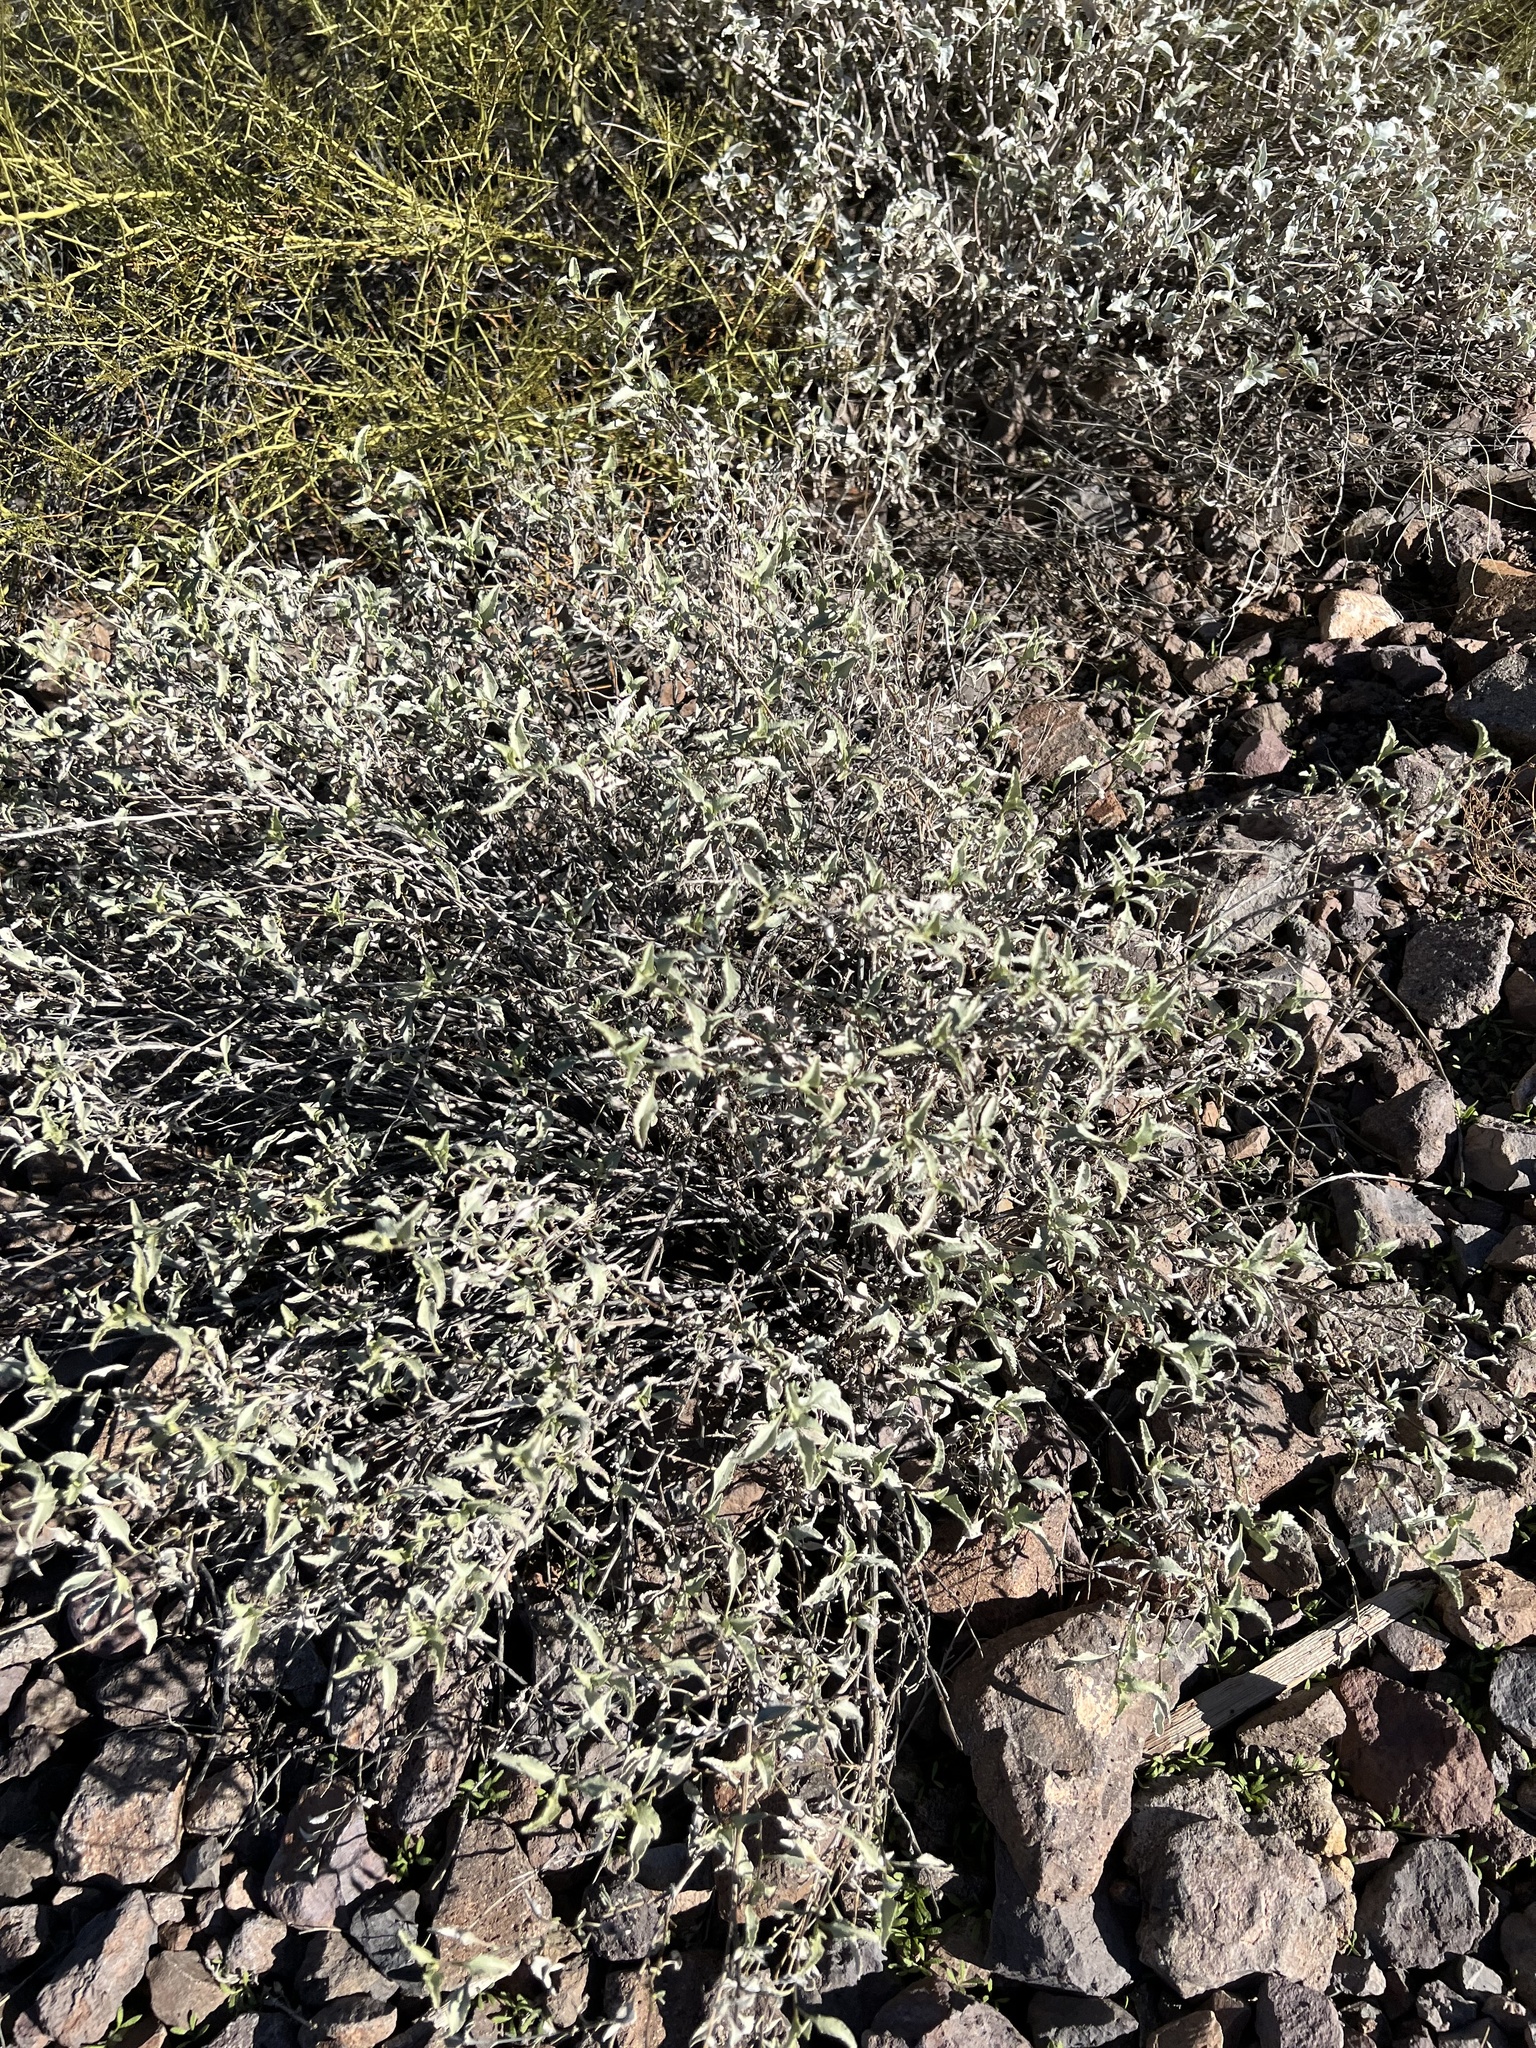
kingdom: Plantae
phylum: Tracheophyta
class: Magnoliopsida
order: Asterales
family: Asteraceae
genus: Ambrosia
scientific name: Ambrosia deltoidea
